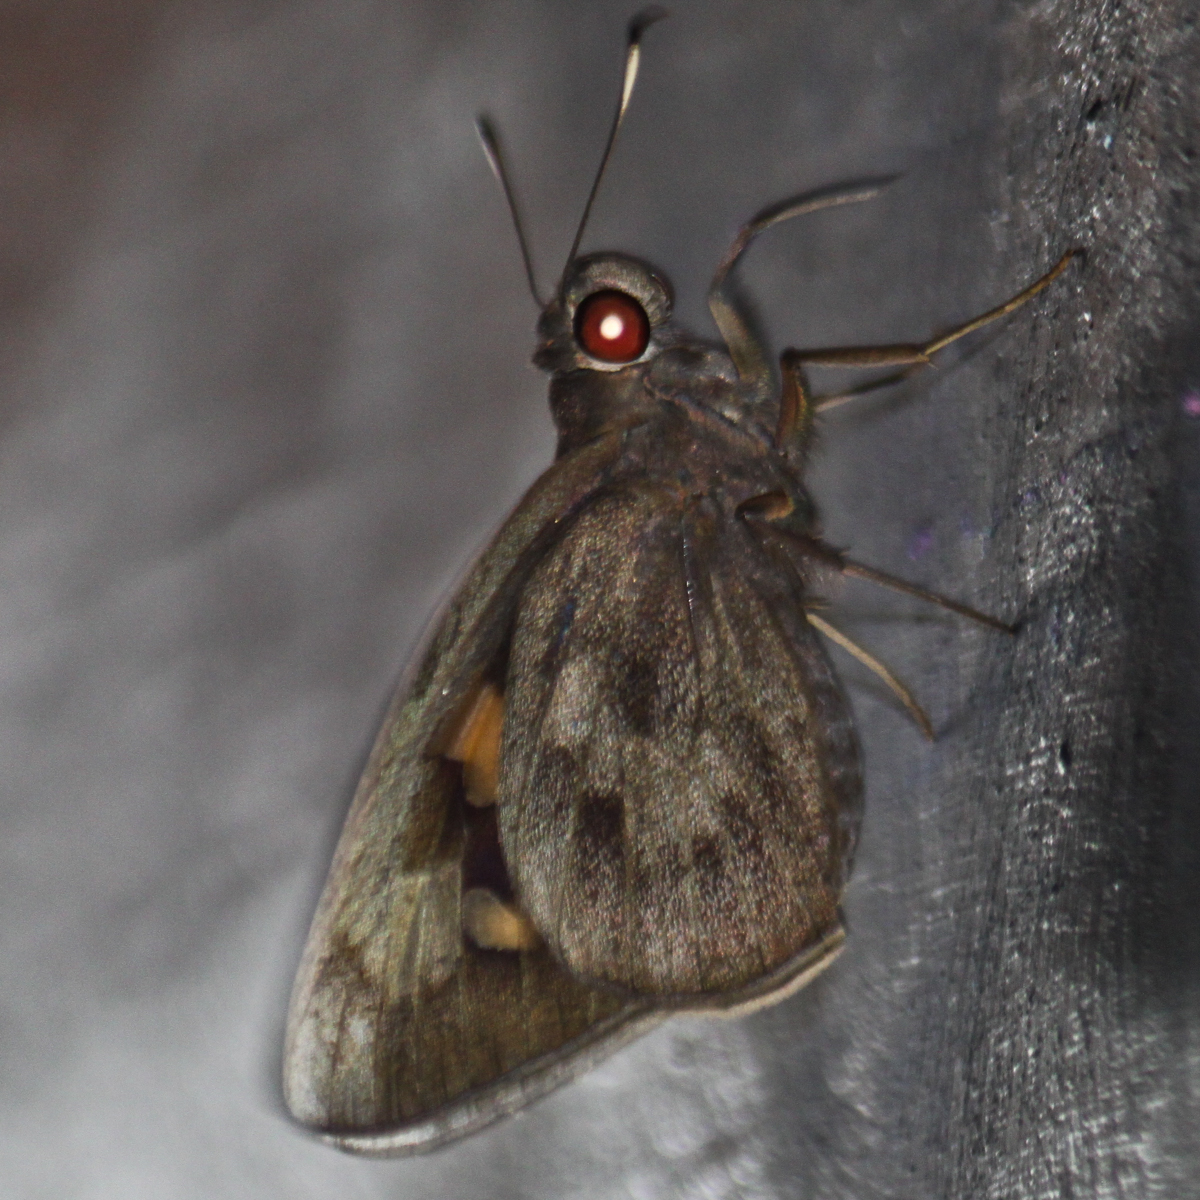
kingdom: Animalia
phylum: Arthropoda
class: Insecta
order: Lepidoptera
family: Hesperiidae
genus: Erionota
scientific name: Erionota acroleucus
